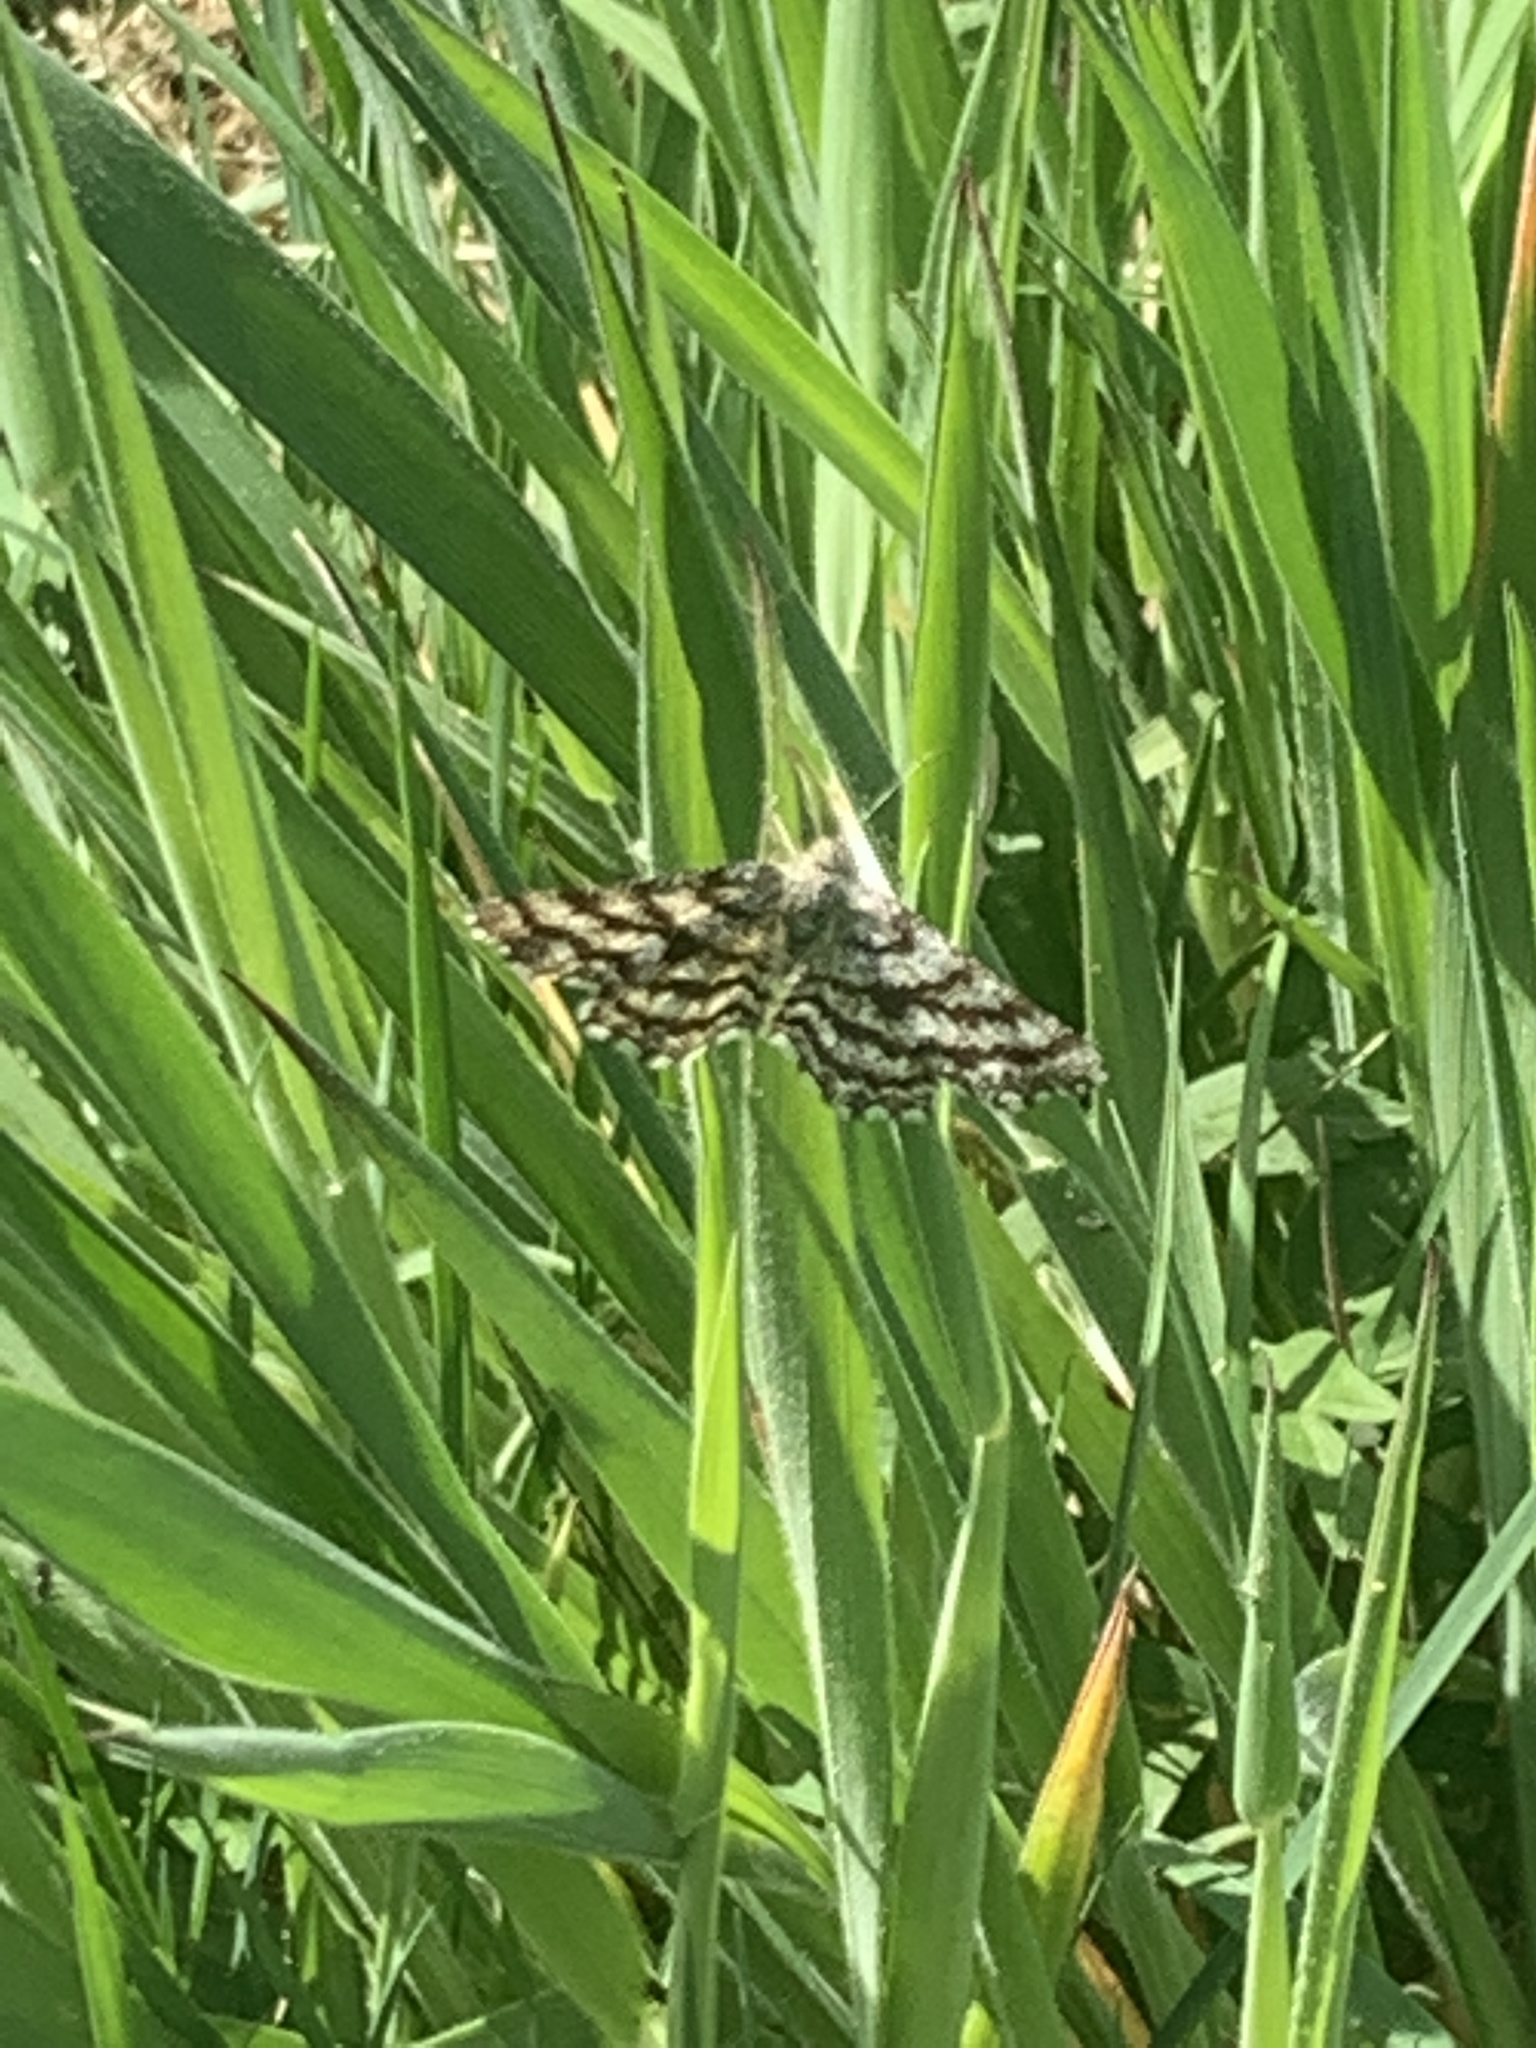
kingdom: Animalia
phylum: Arthropoda
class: Insecta
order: Lepidoptera
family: Geometridae
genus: Ematurga
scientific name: Ematurga atomaria
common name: Common heath
